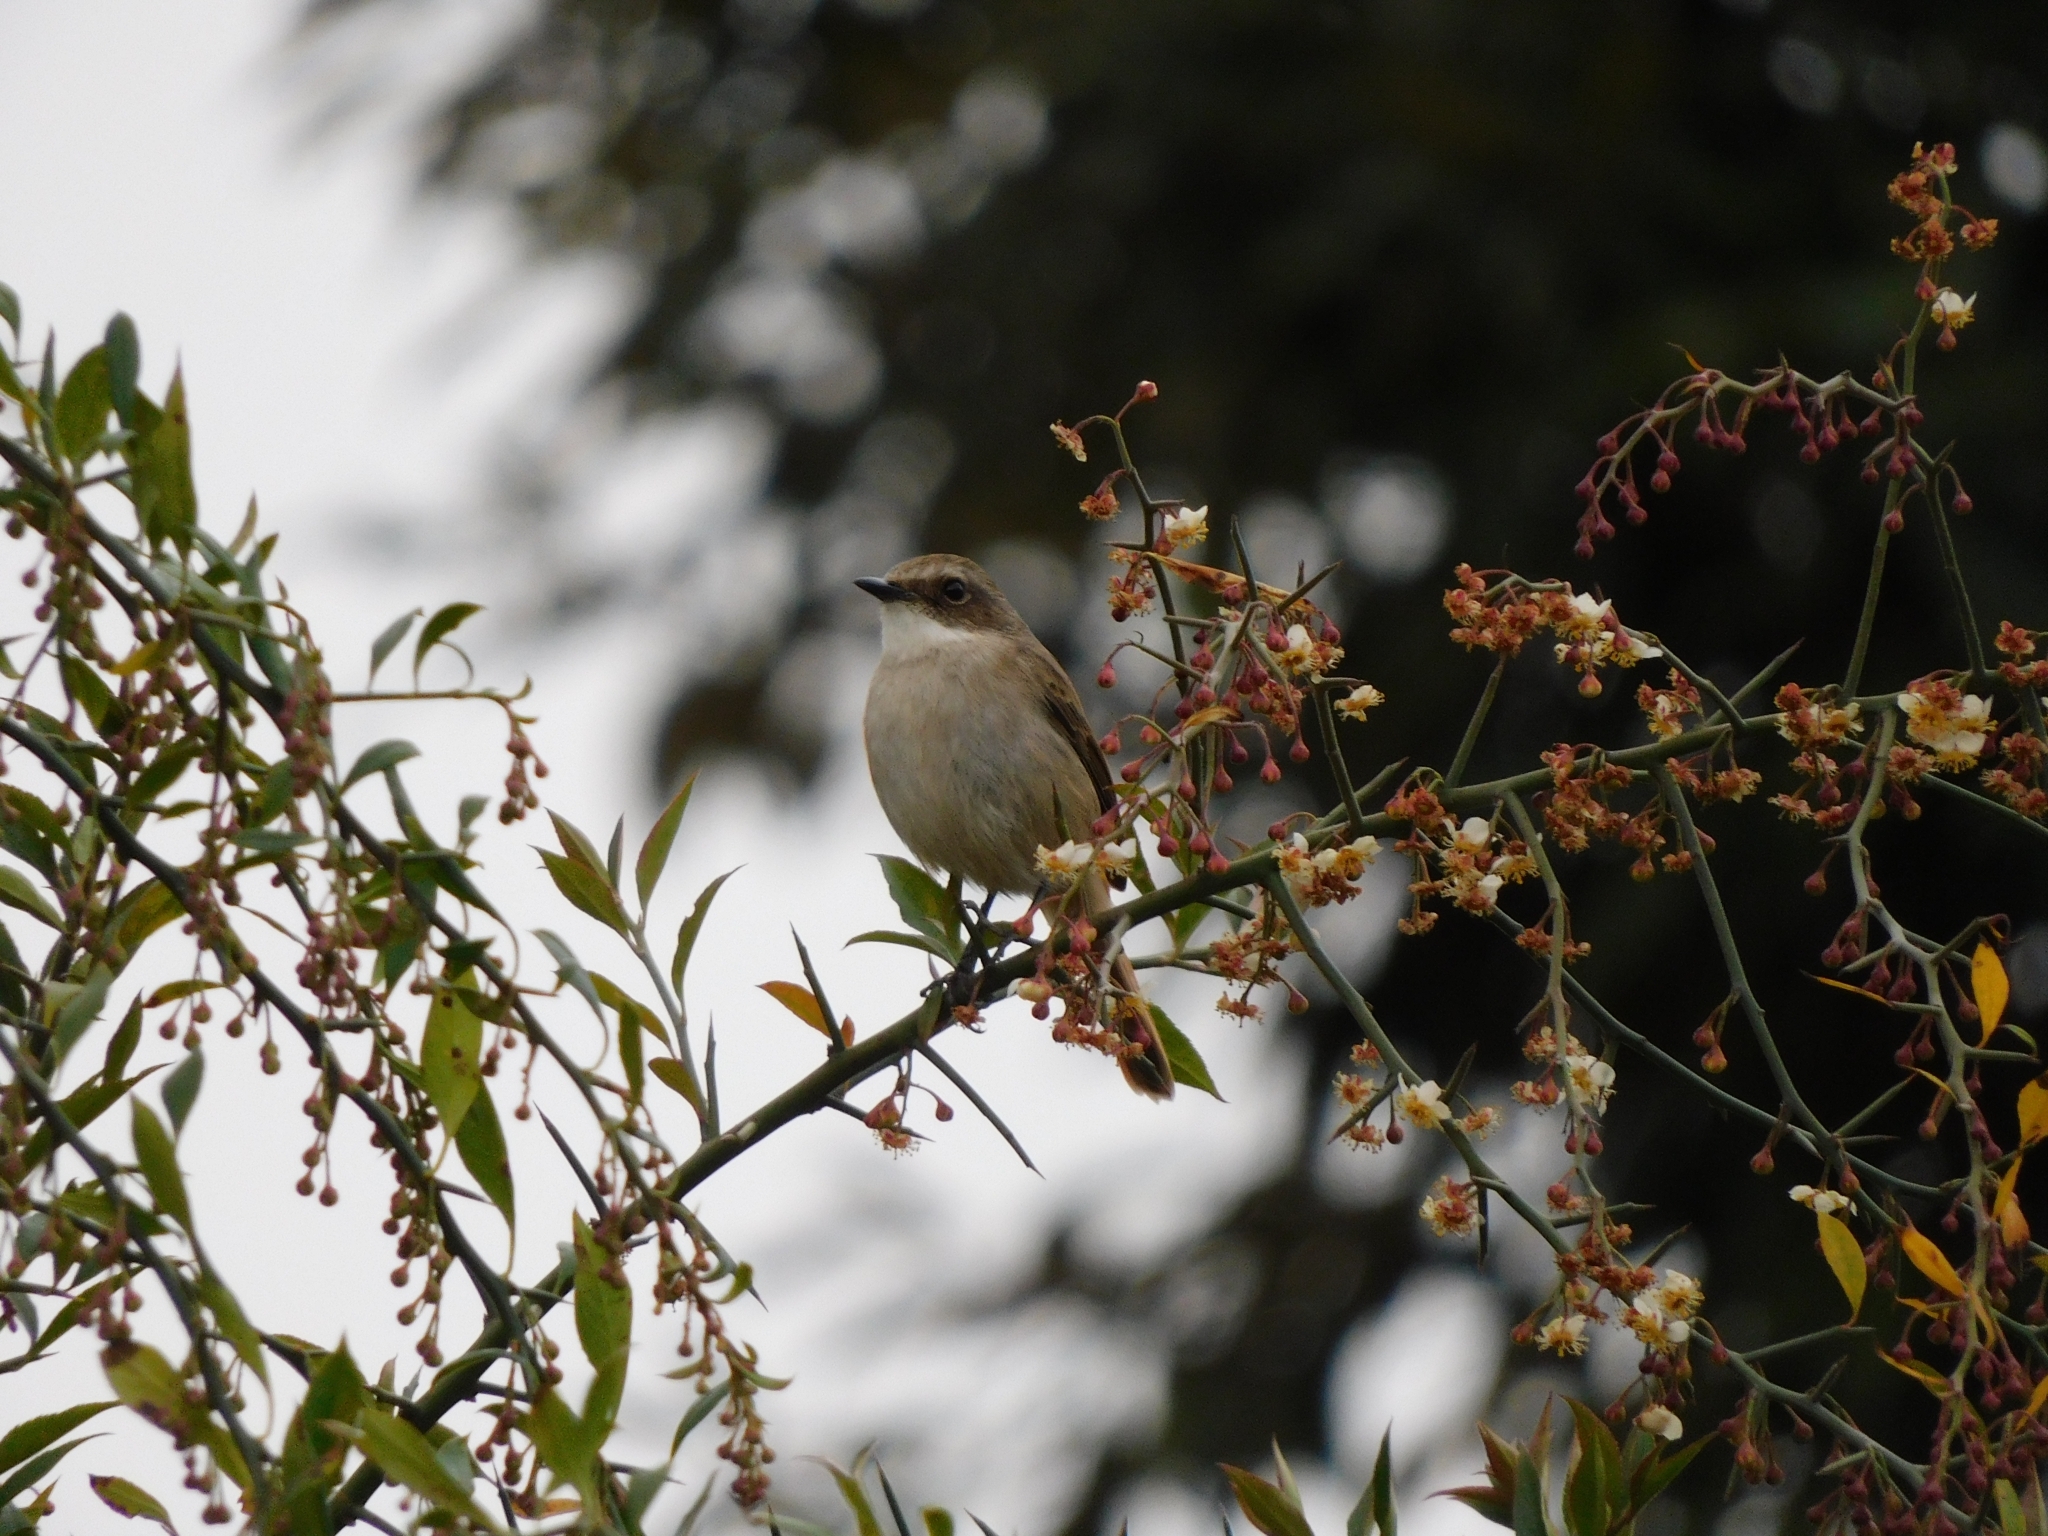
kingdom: Animalia
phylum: Chordata
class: Aves
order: Passeriformes
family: Muscicapidae
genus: Saxicola
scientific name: Saxicola ferreus
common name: Grey bush chat
